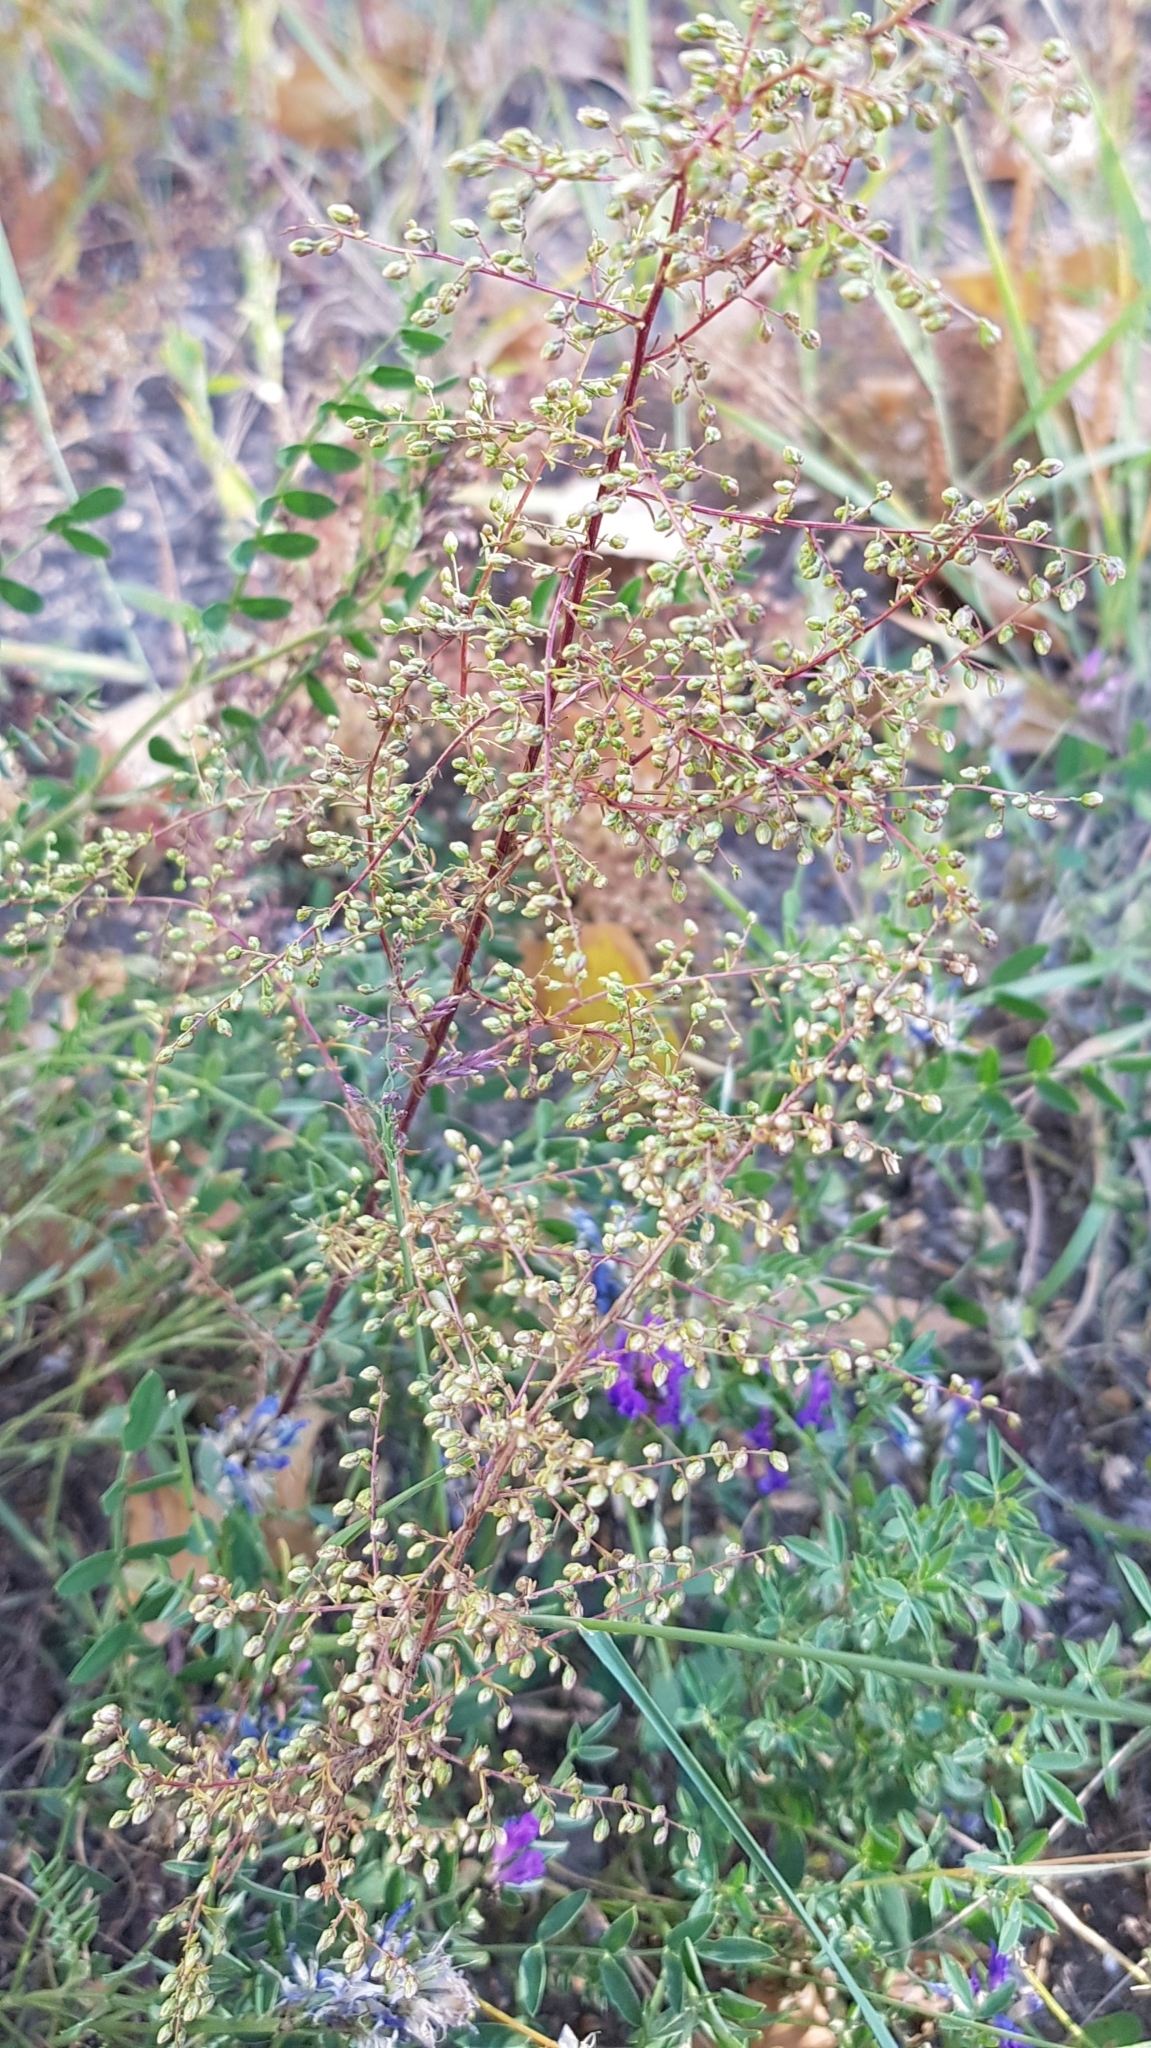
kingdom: Plantae
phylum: Tracheophyta
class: Magnoliopsida
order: Asterales
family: Asteraceae
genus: Artemisia
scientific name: Artemisia scoparia
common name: Redstem wormwood
